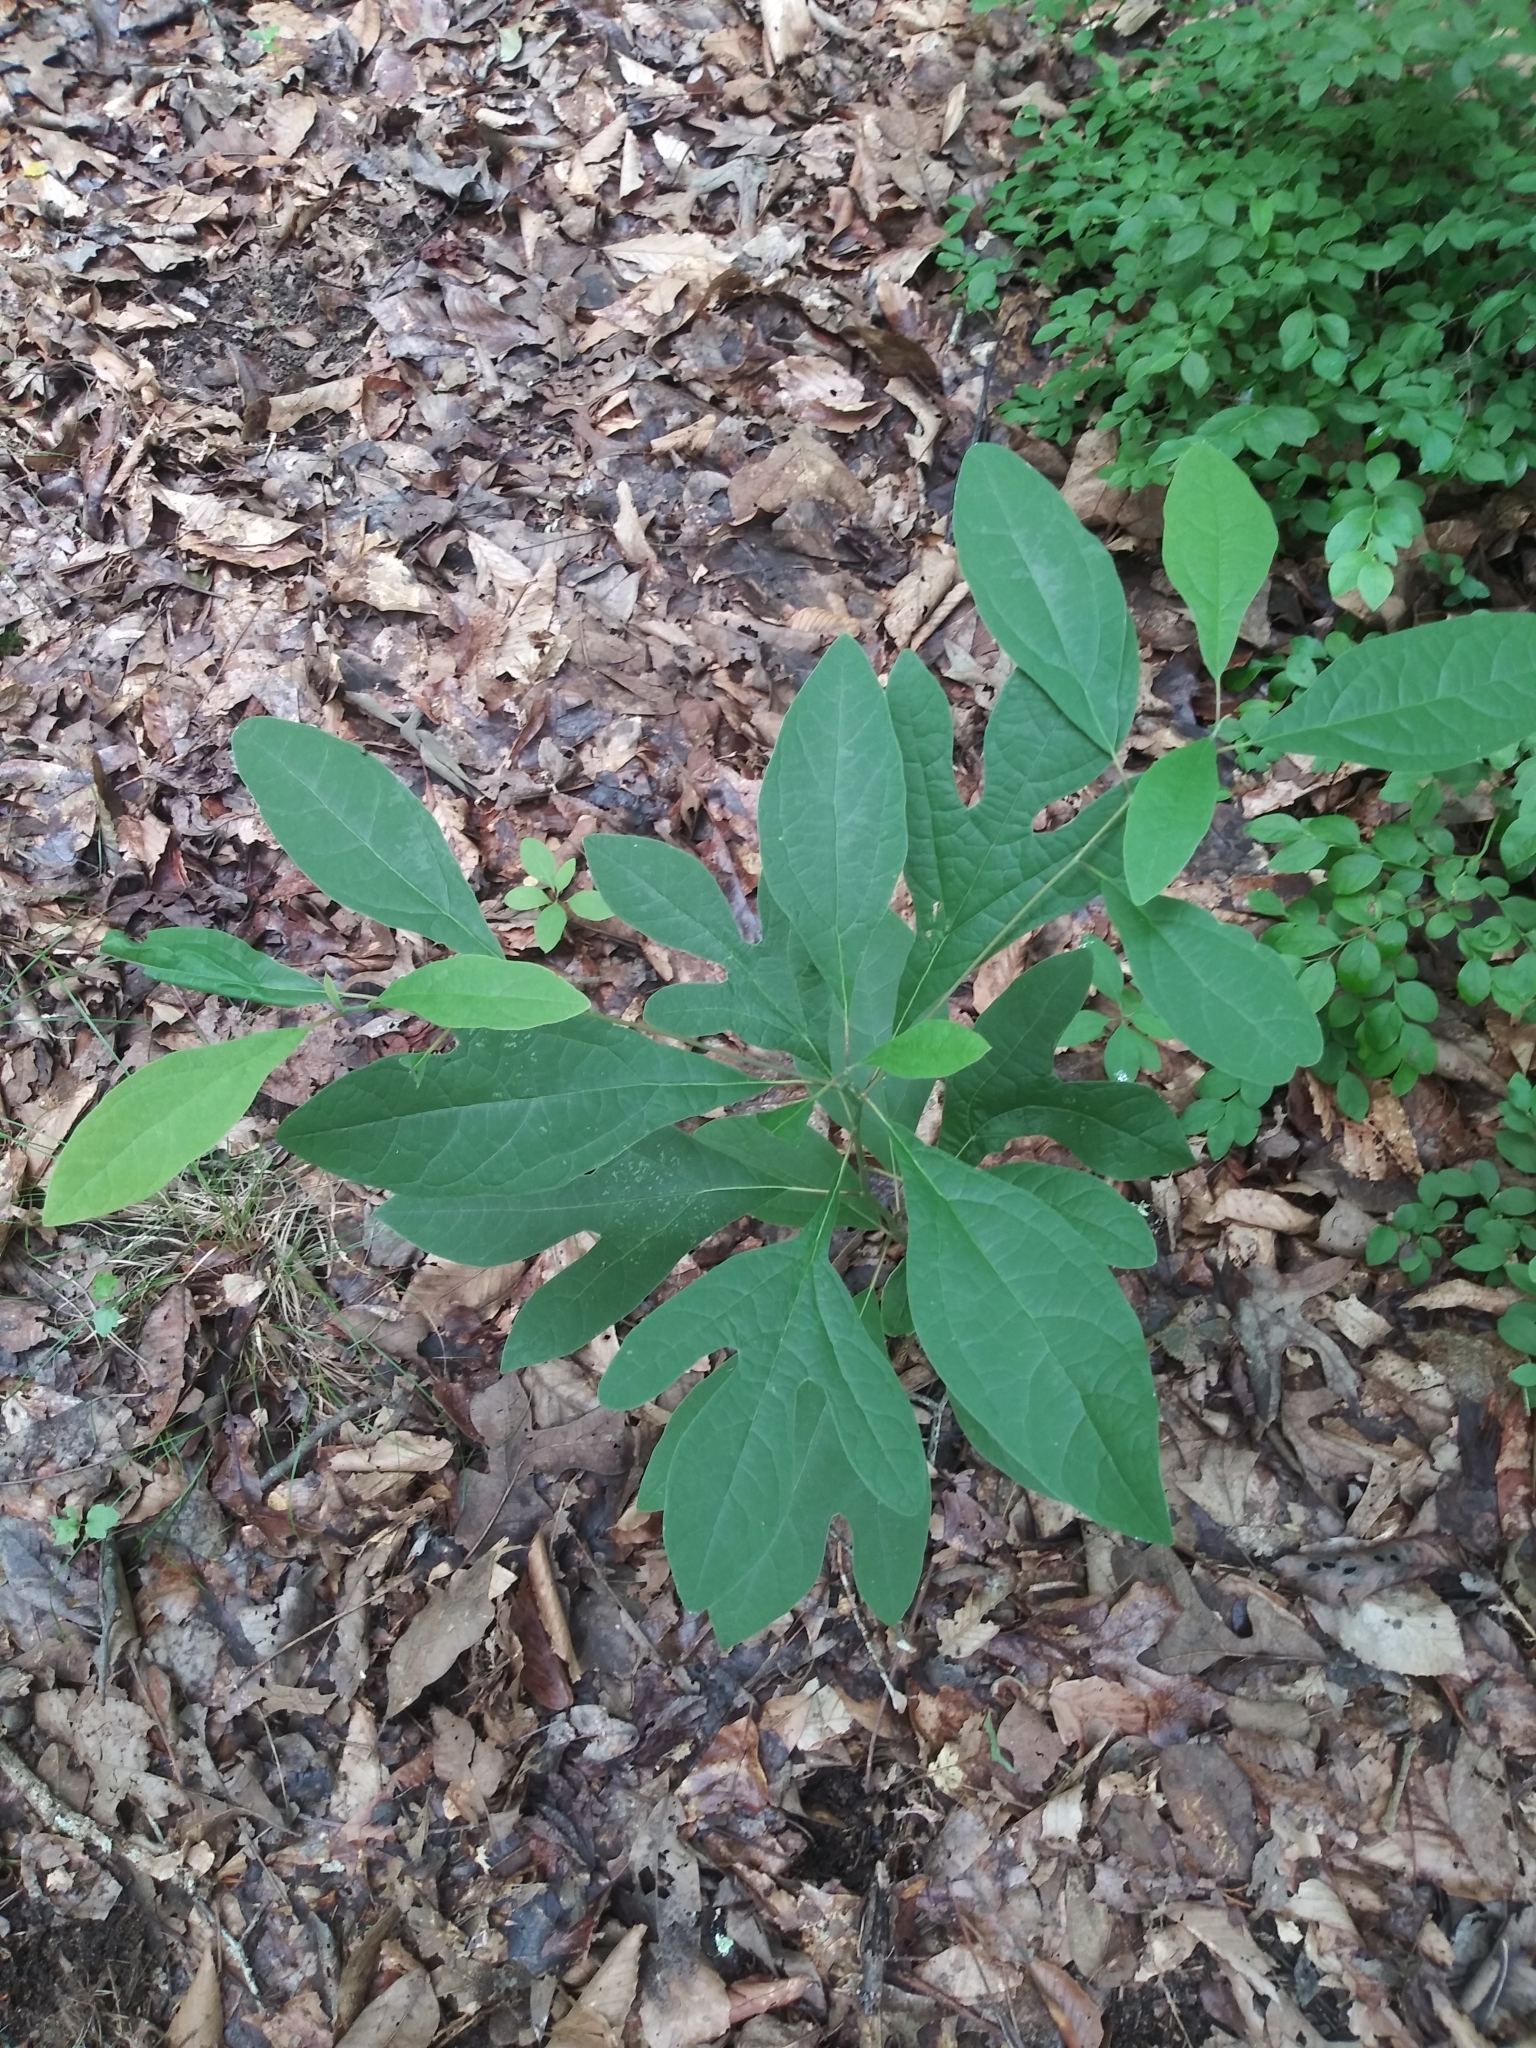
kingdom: Plantae
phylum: Tracheophyta
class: Magnoliopsida
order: Laurales
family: Lauraceae
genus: Sassafras
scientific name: Sassafras albidum
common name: Sassafras
